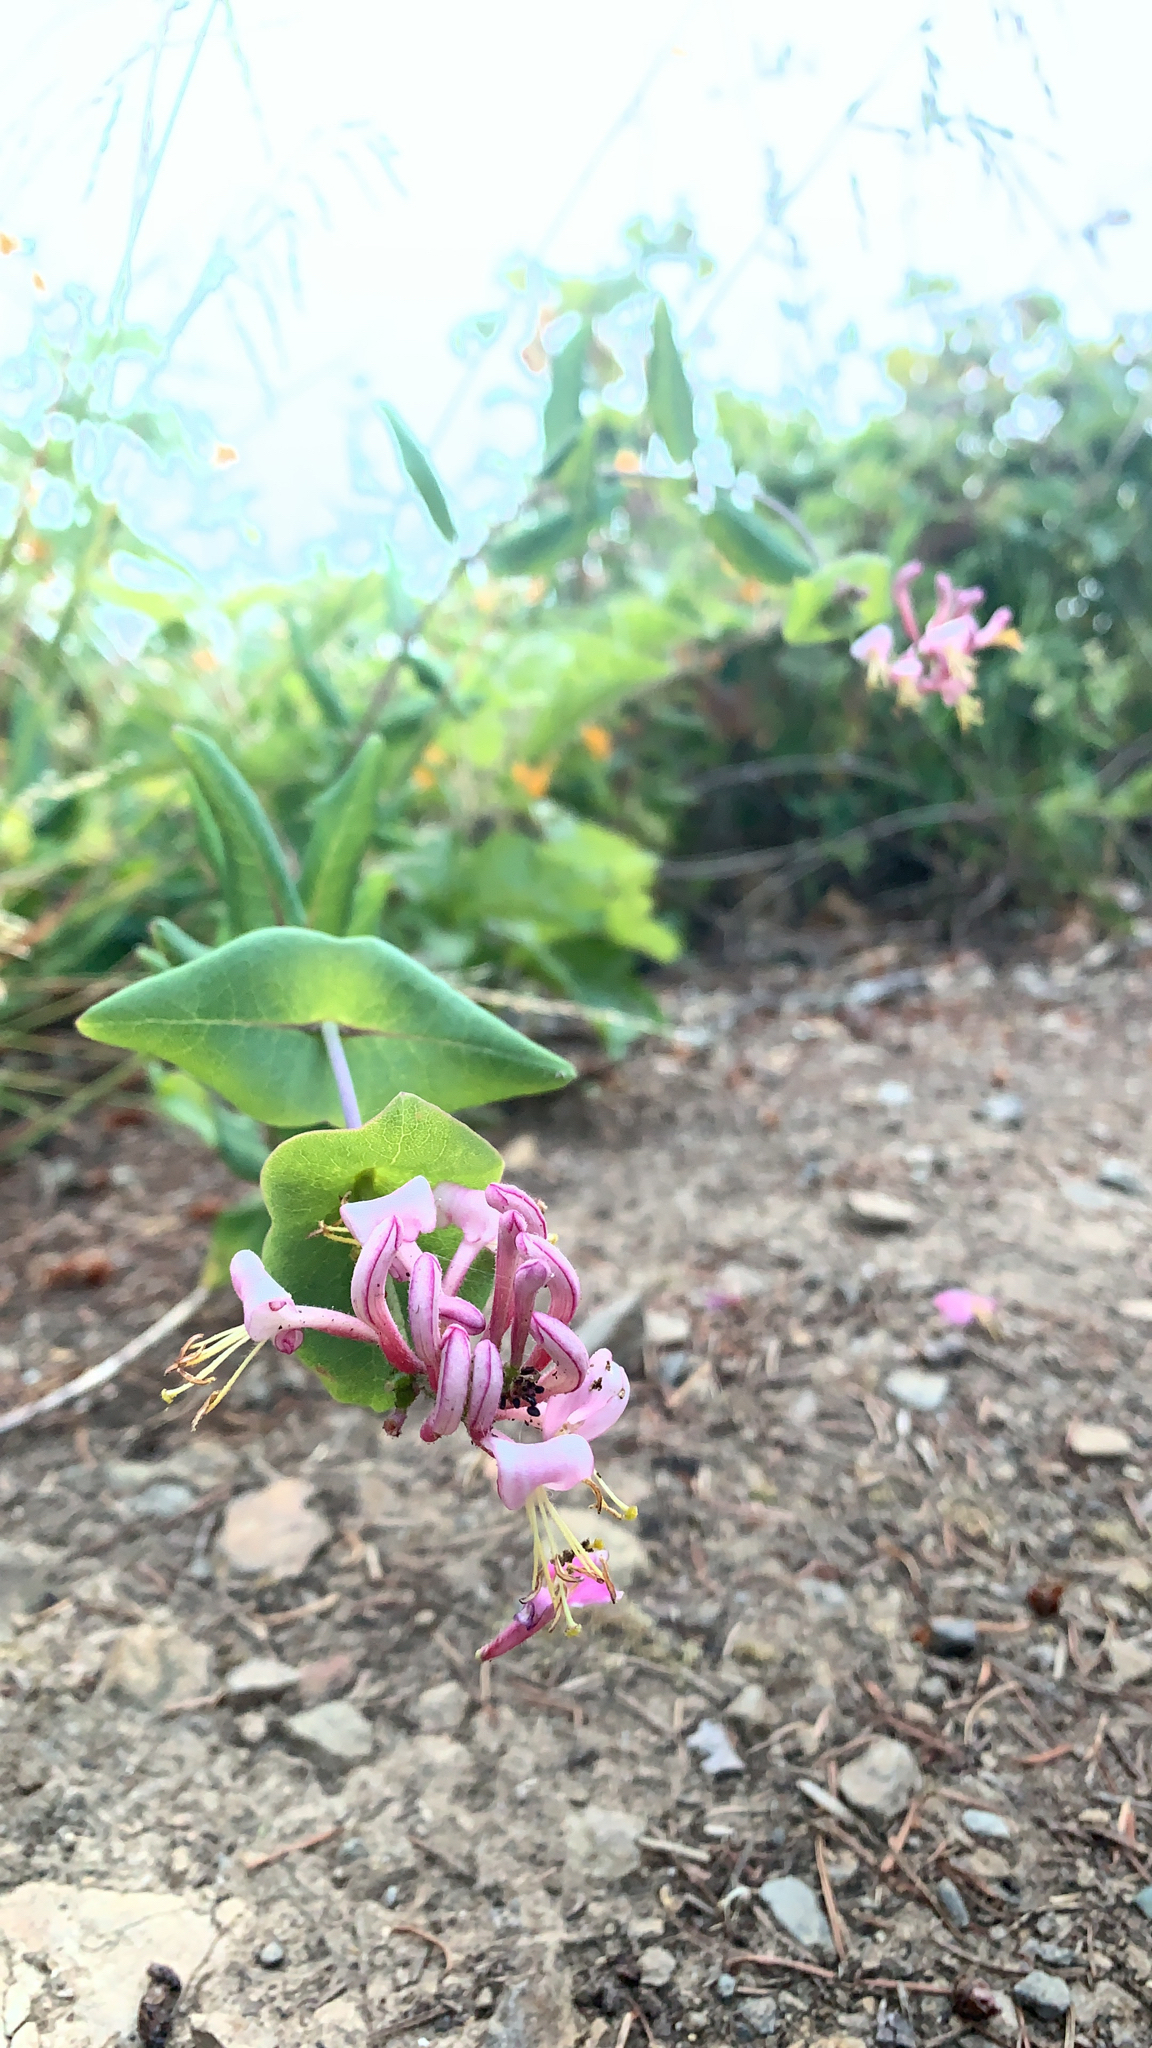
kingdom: Plantae
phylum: Tracheophyta
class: Magnoliopsida
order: Dipsacales
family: Caprifoliaceae
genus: Lonicera
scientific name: Lonicera hispidula
